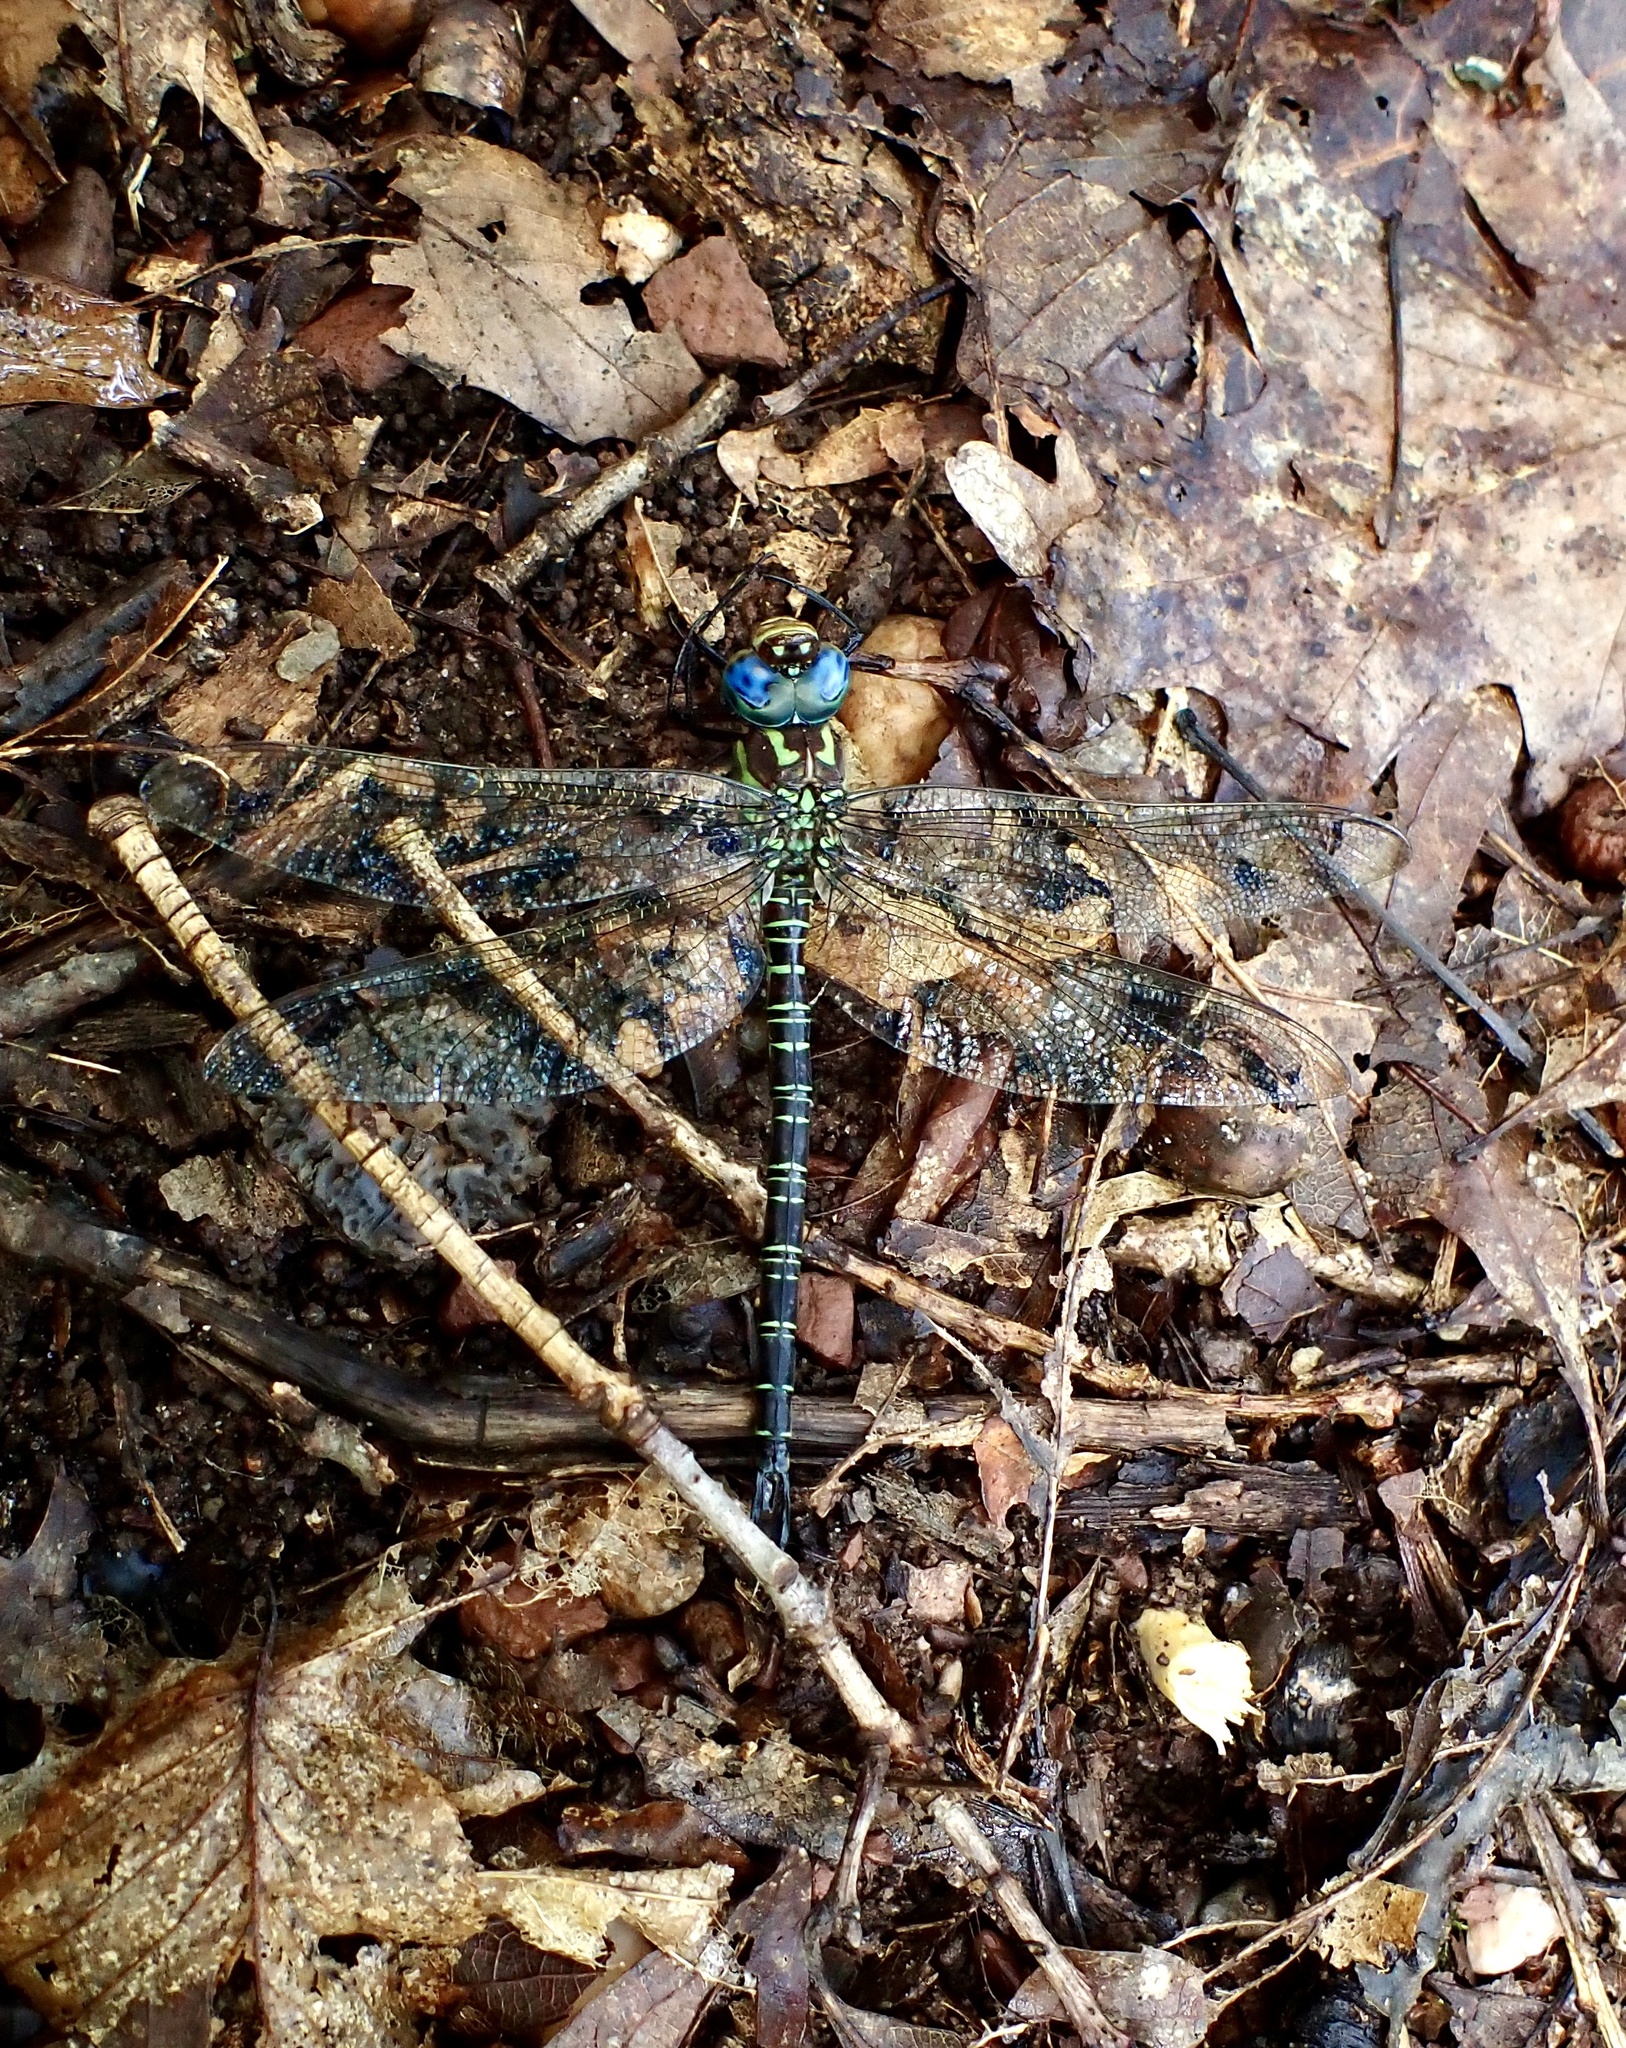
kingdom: Animalia
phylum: Arthropoda
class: Insecta
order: Odonata
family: Aeshnidae
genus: Epiaeschna
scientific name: Epiaeschna heros
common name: Swamp darner
